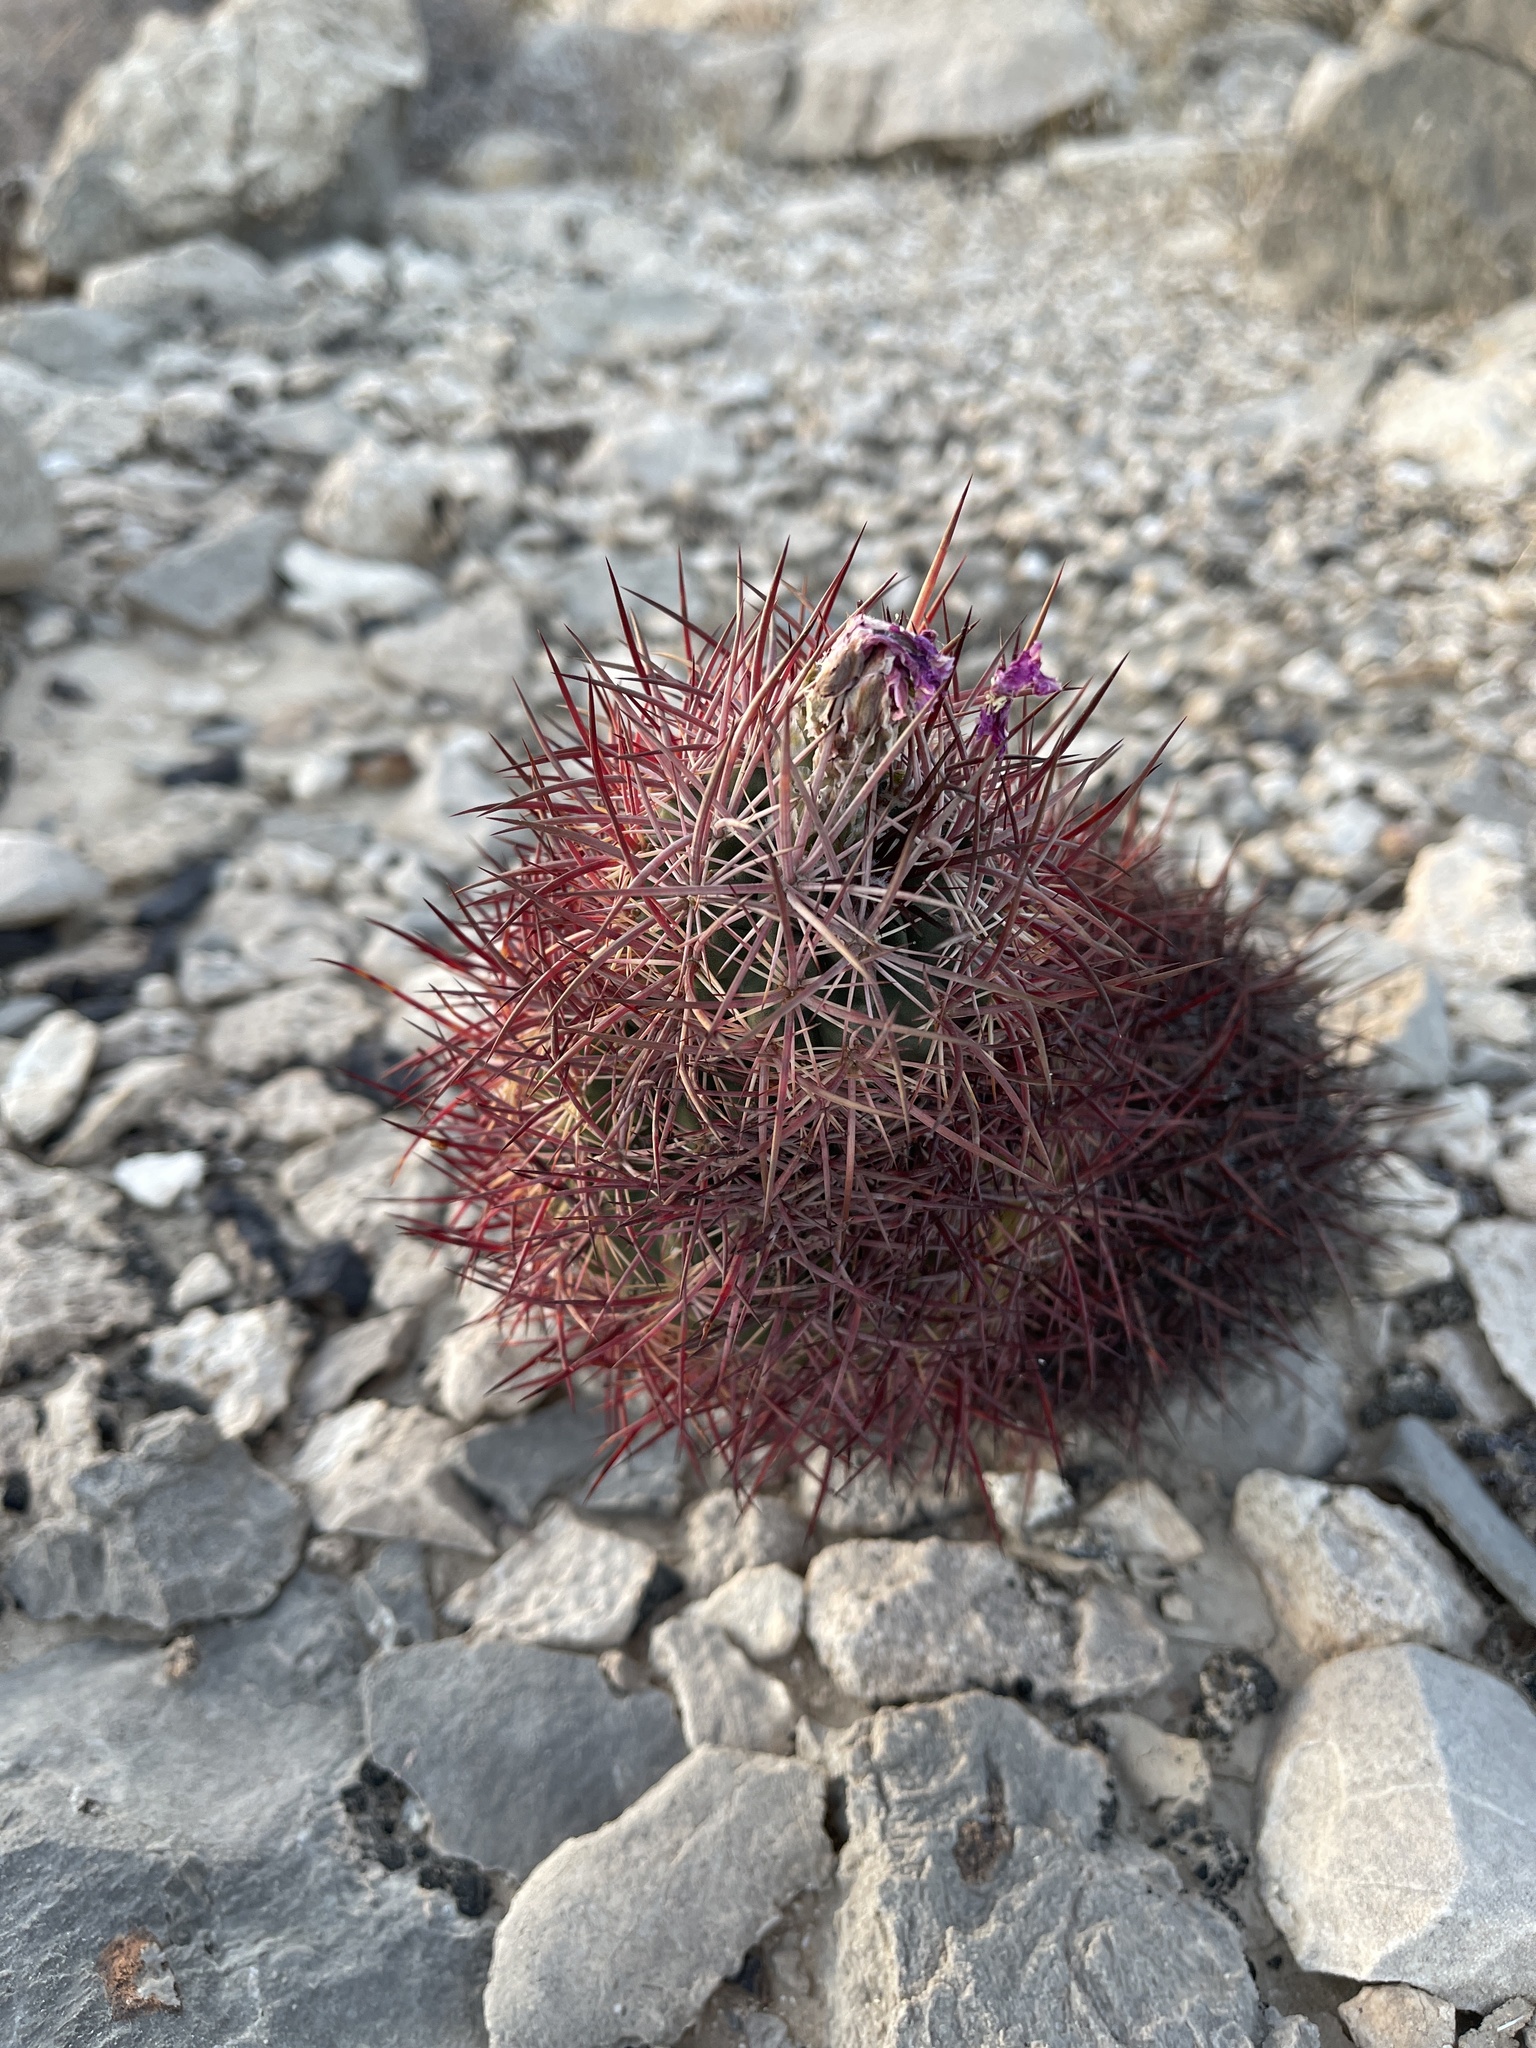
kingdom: Plantae
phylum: Tracheophyta
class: Magnoliopsida
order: Caryophyllales
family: Cactaceae
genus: Sclerocactus
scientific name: Sclerocactus johnsonii
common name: Eight-spine fishhook cactus
